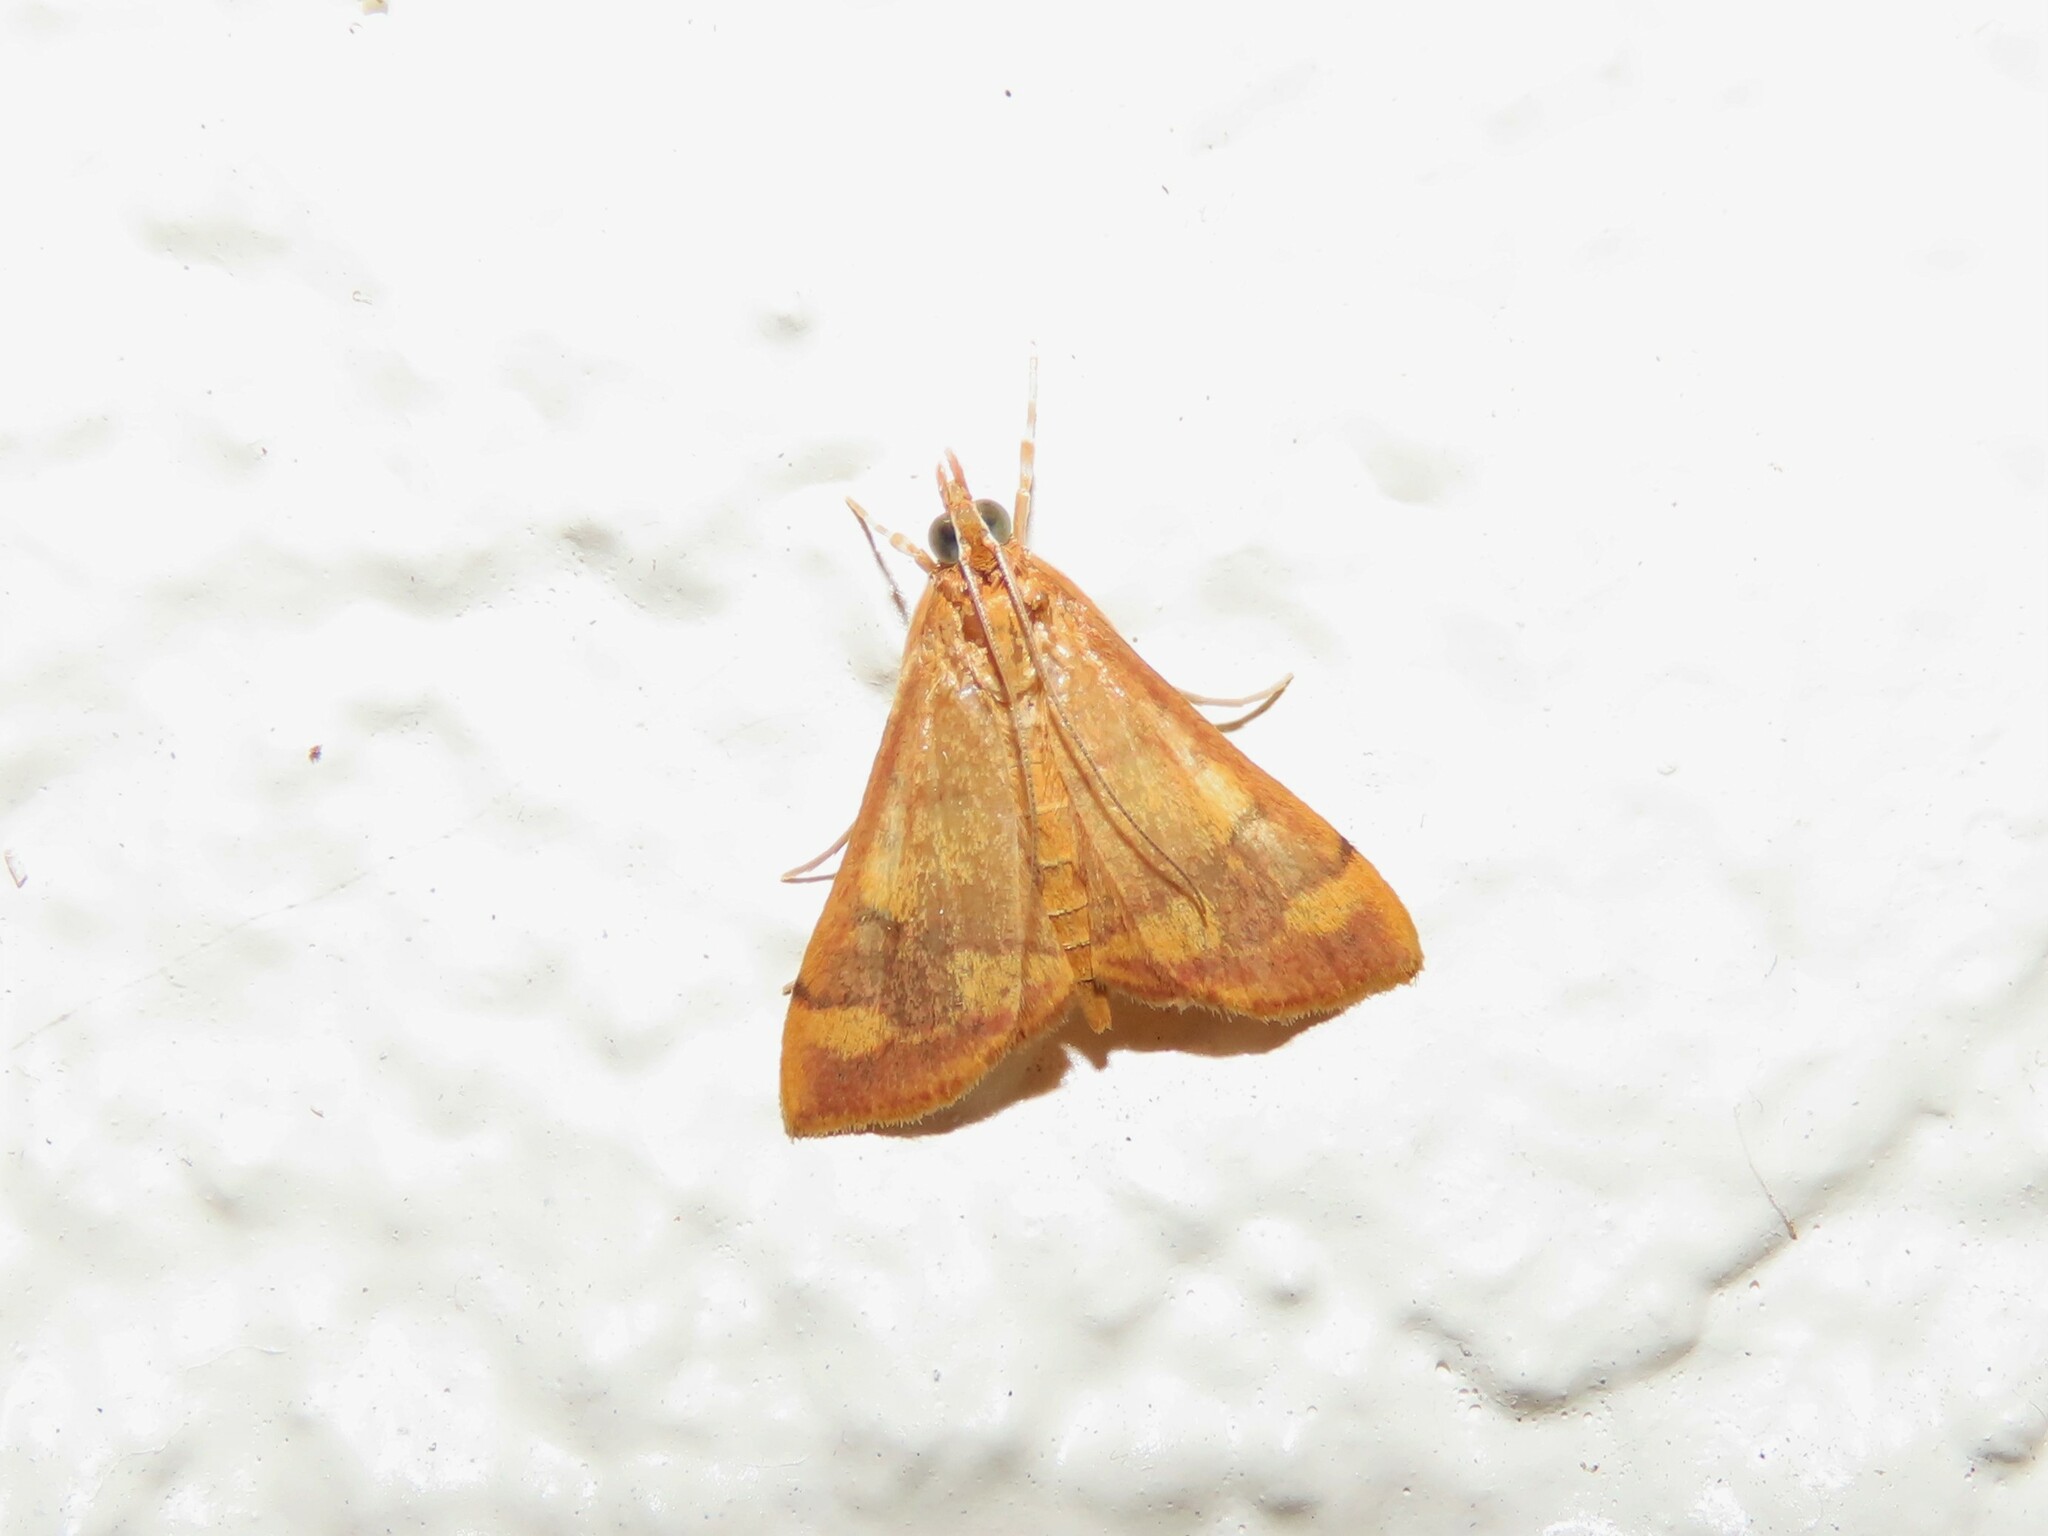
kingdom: Animalia
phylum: Arthropoda
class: Insecta
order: Lepidoptera
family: Crambidae
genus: Pyrausta
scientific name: Pyrausta phoenicealis
